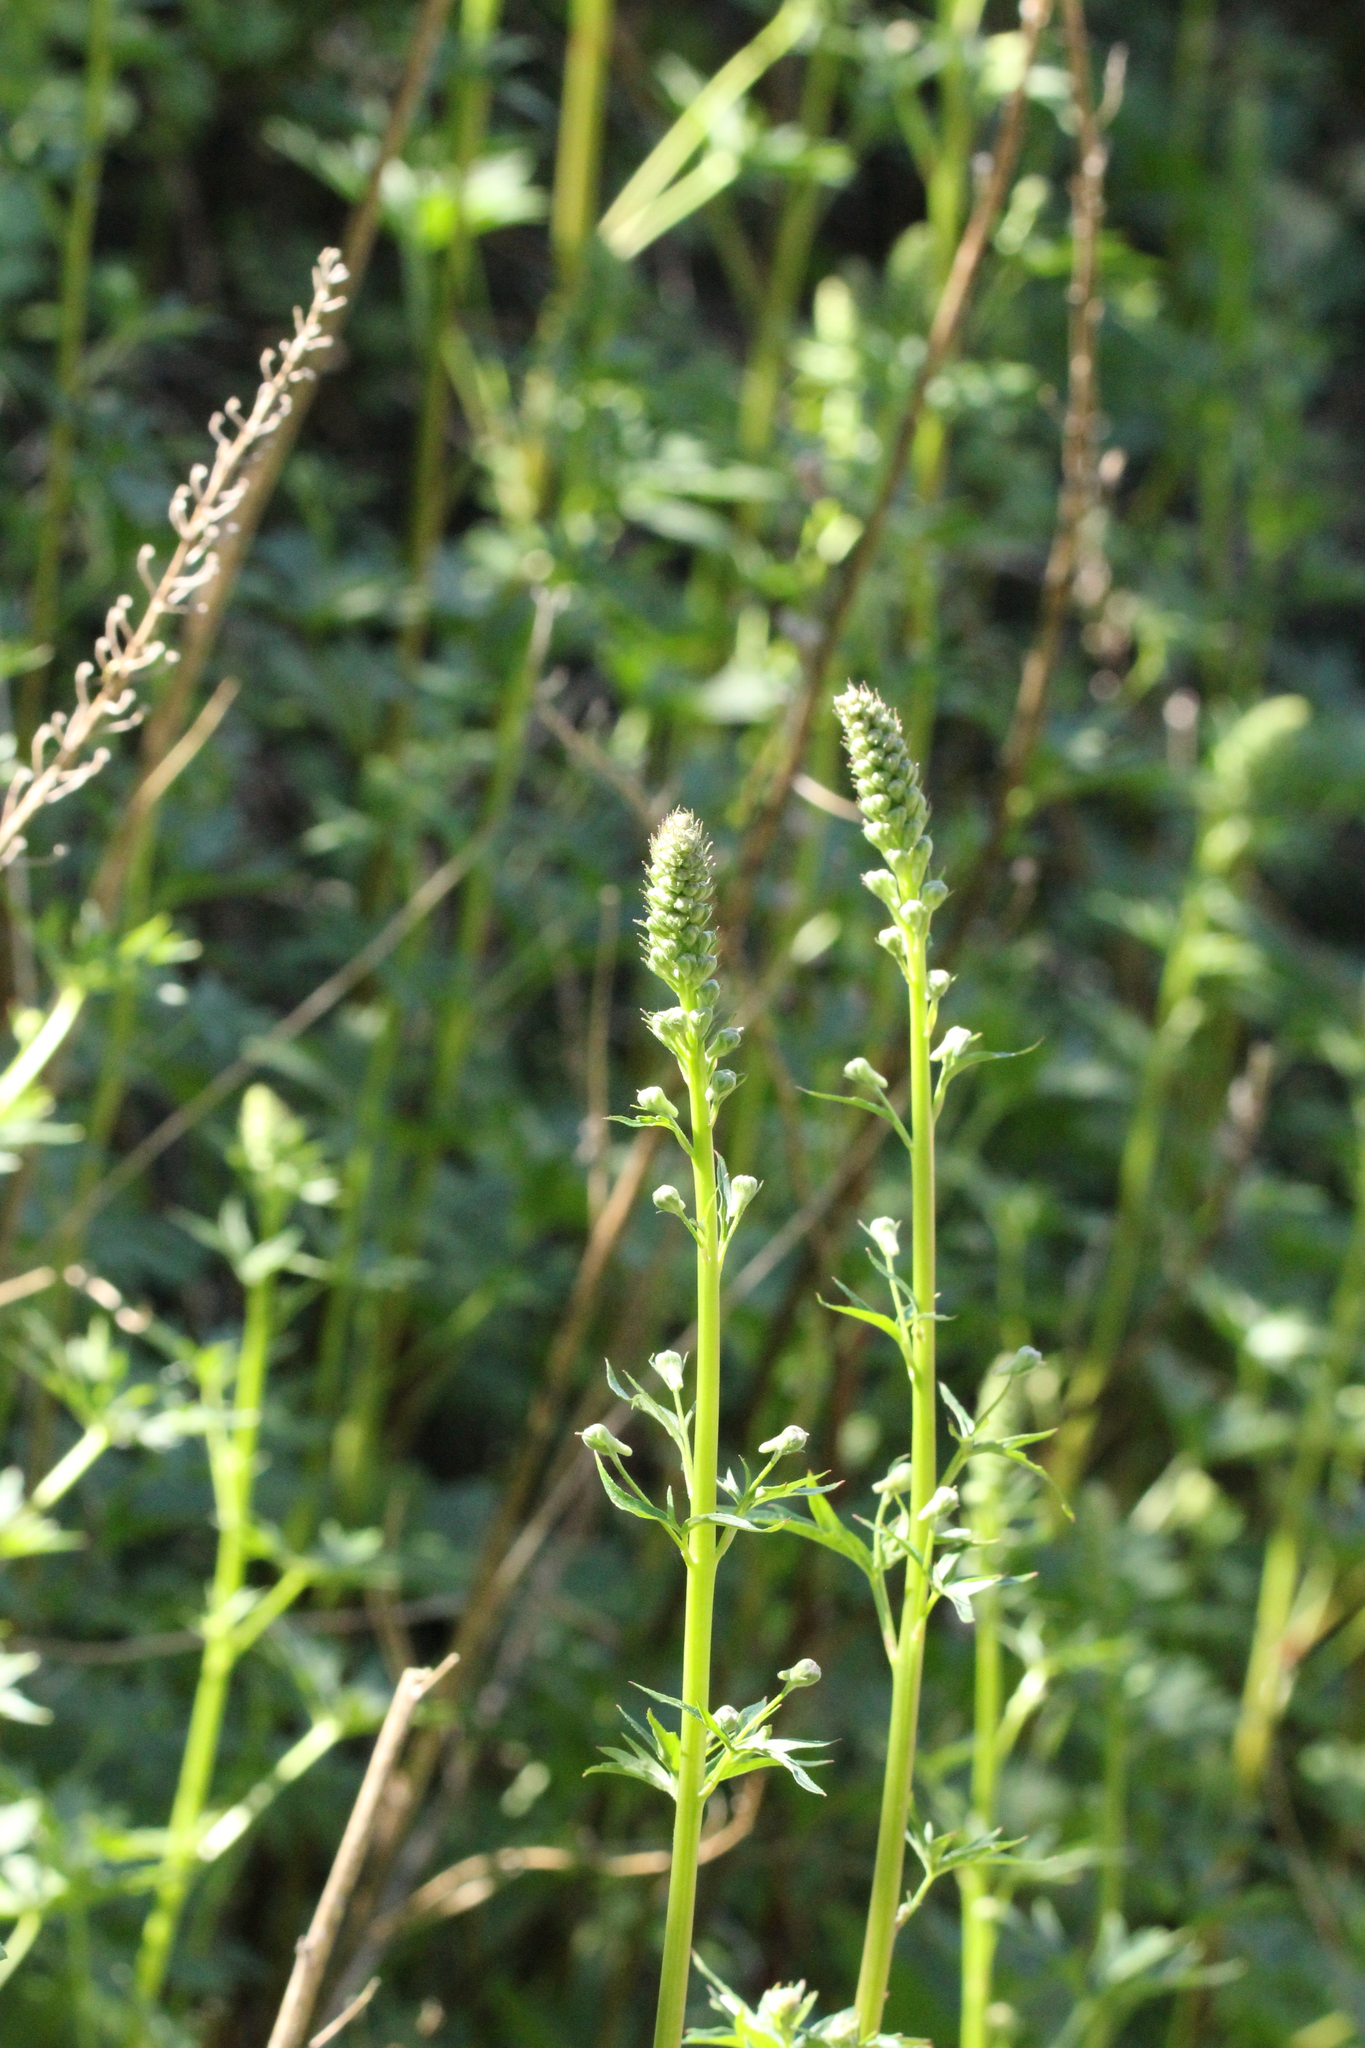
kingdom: Plantae
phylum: Tracheophyta
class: Magnoliopsida
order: Ranunculales
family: Ranunculaceae
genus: Delphinium
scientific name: Delphinium californicum
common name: California larkspur
